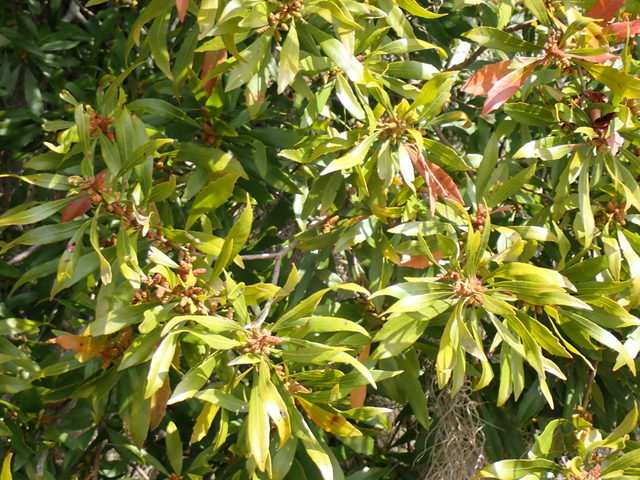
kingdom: Plantae
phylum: Tracheophyta
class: Magnoliopsida
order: Fagales
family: Myricaceae
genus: Morella
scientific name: Morella cerifera
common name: Wax myrtle
